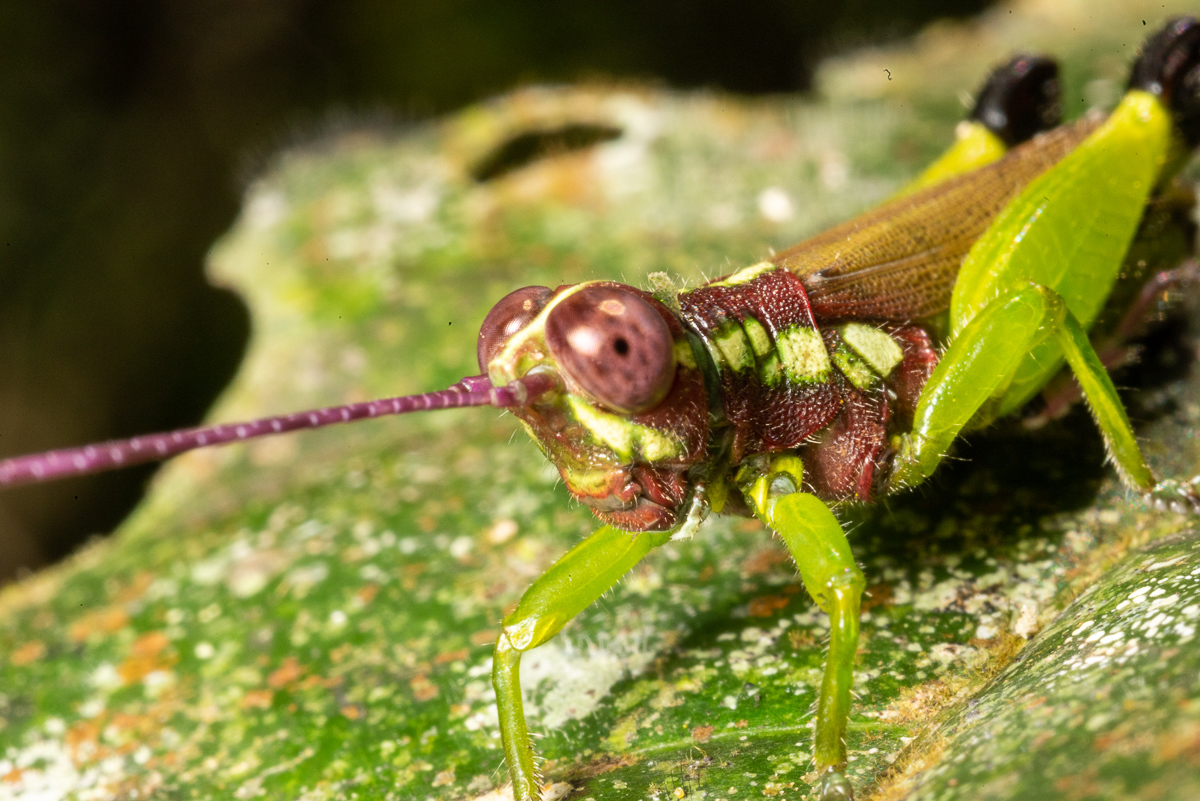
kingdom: Animalia
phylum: Arthropoda
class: Insecta
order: Orthoptera
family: Acrididae
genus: Saltonacris
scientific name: Saltonacris cymae
